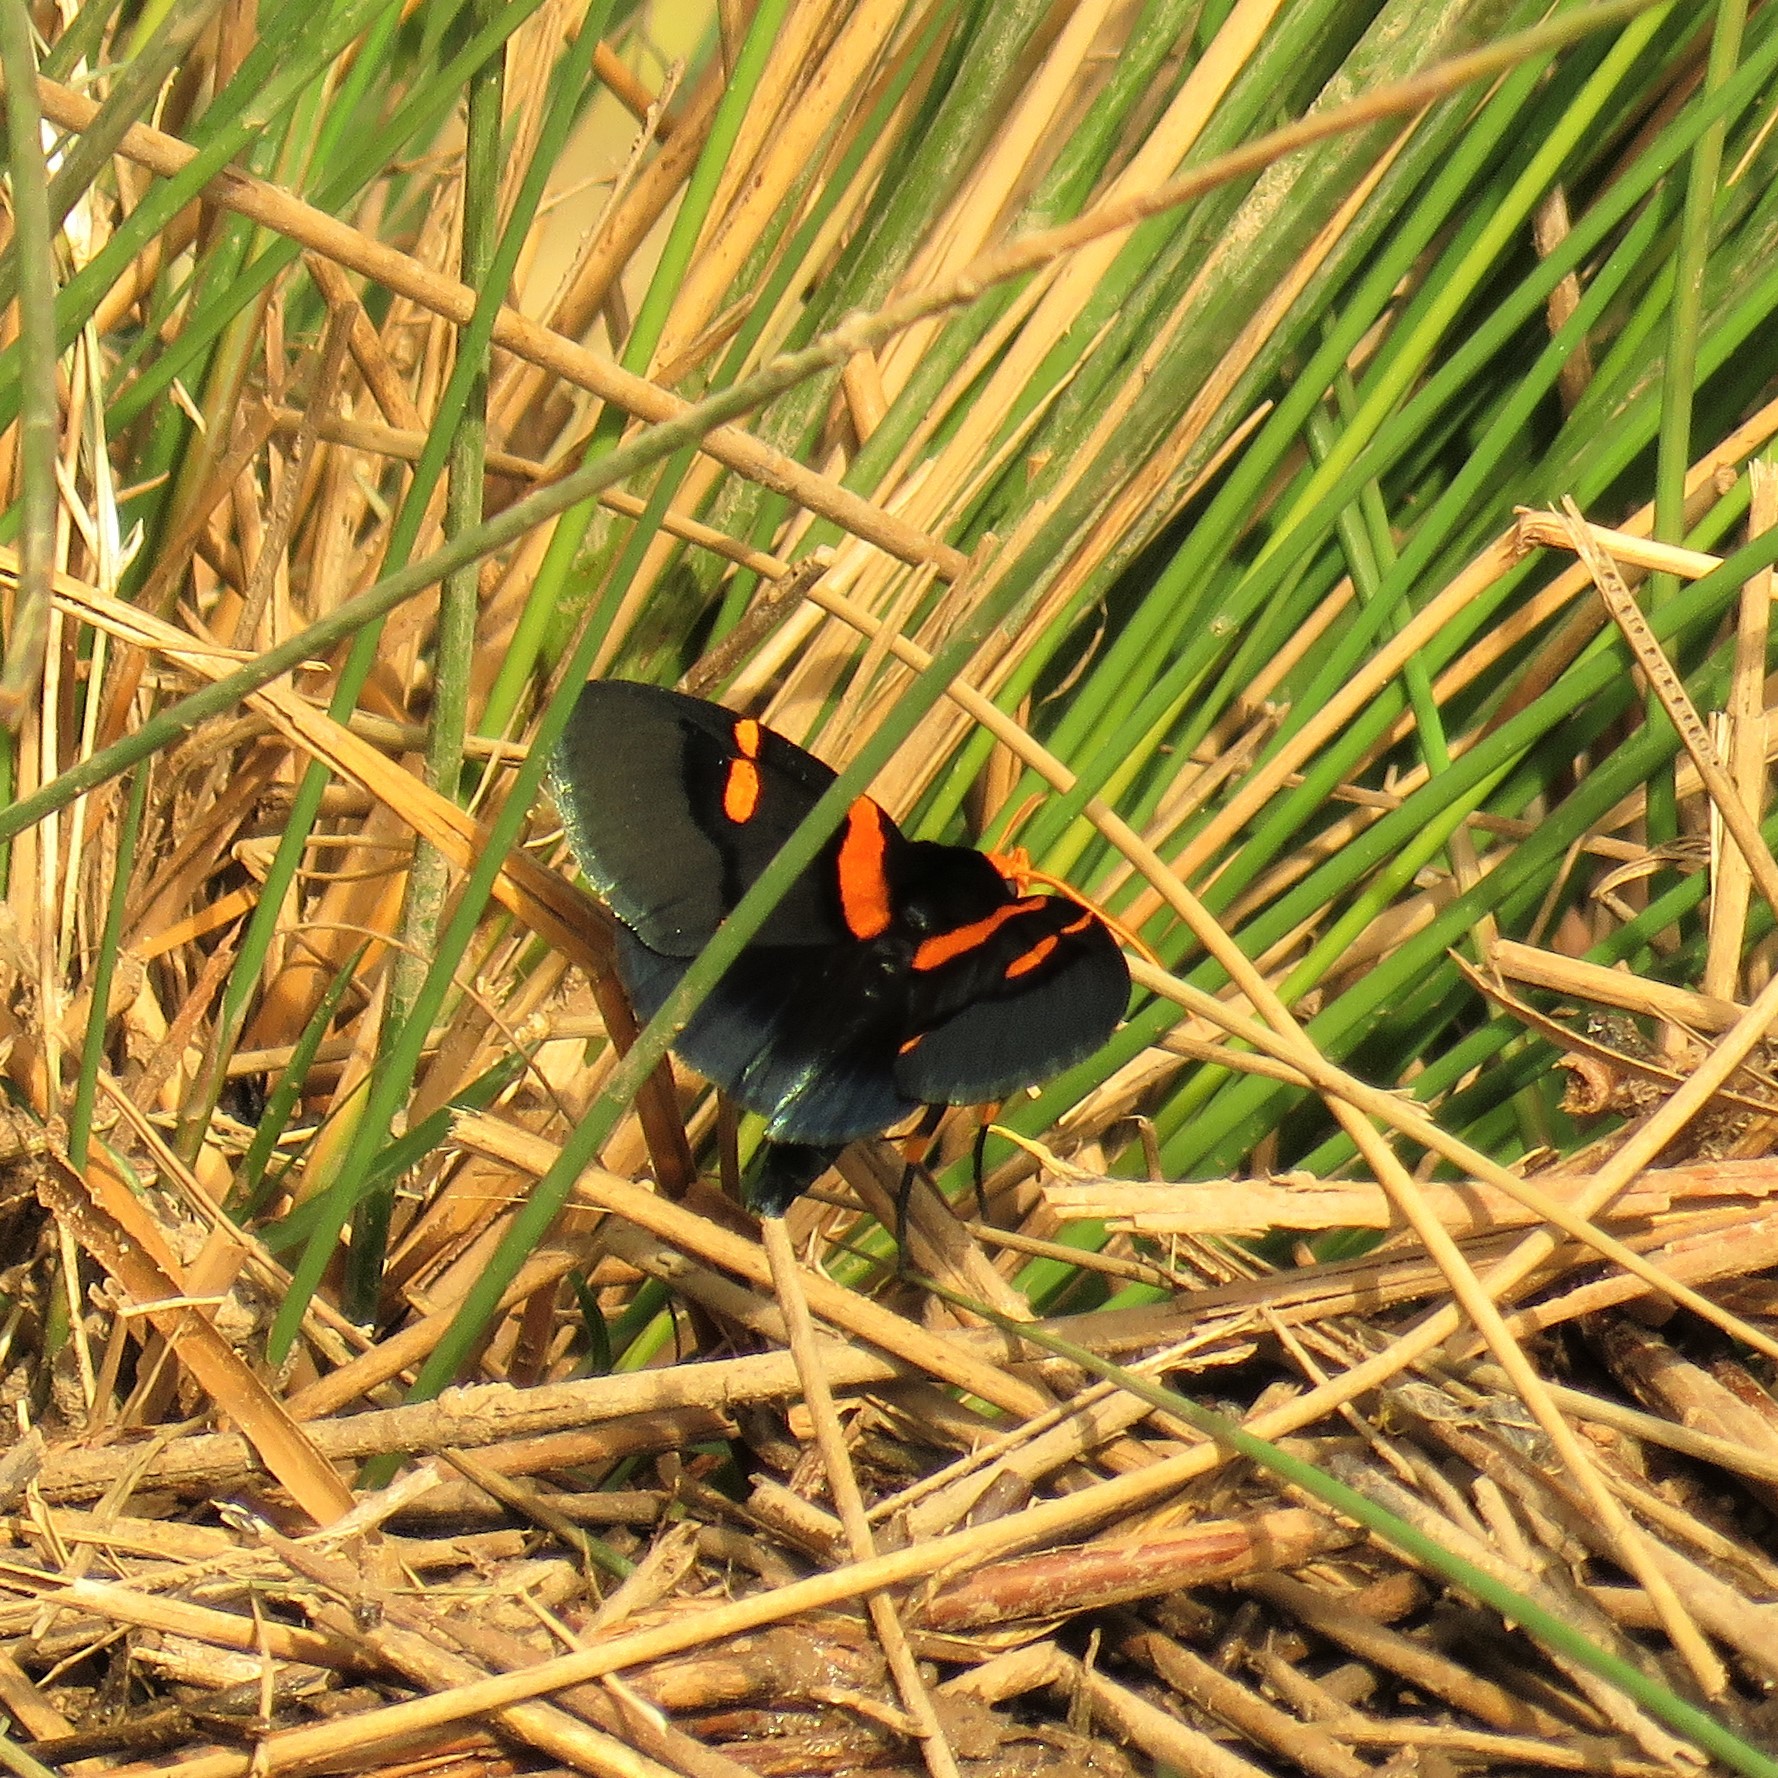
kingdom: Animalia
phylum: Arthropoda
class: Insecta
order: Lepidoptera
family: Erebidae
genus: Egybolis
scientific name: Egybolis vaillantina
